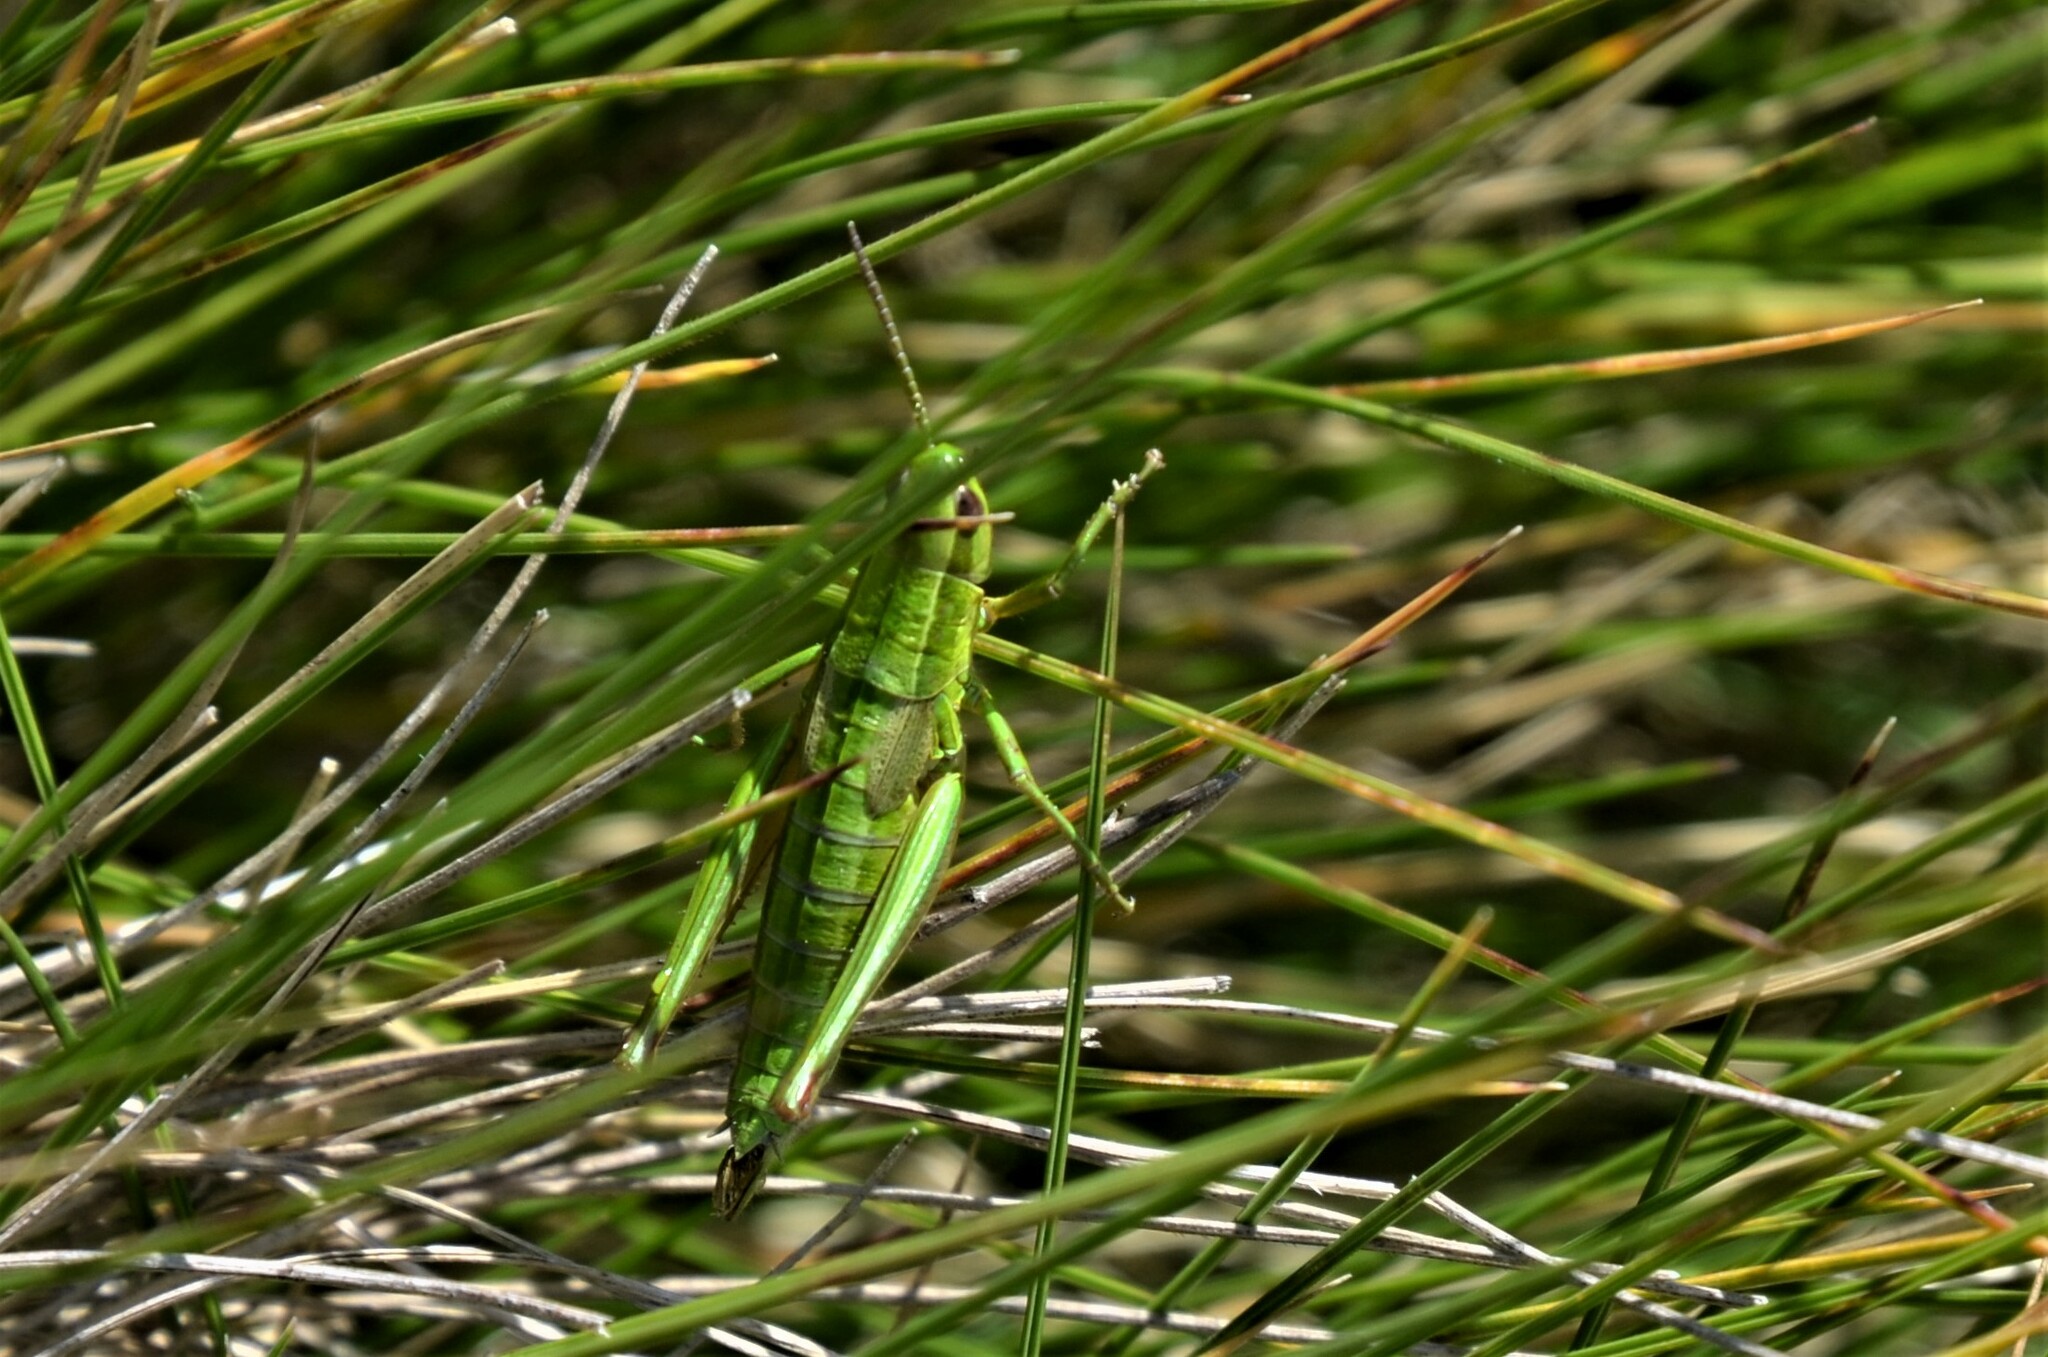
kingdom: Animalia
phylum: Arthropoda
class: Insecta
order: Orthoptera
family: Acrididae
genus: Euthystira
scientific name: Euthystira brachyptera
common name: Small gold grasshopper
